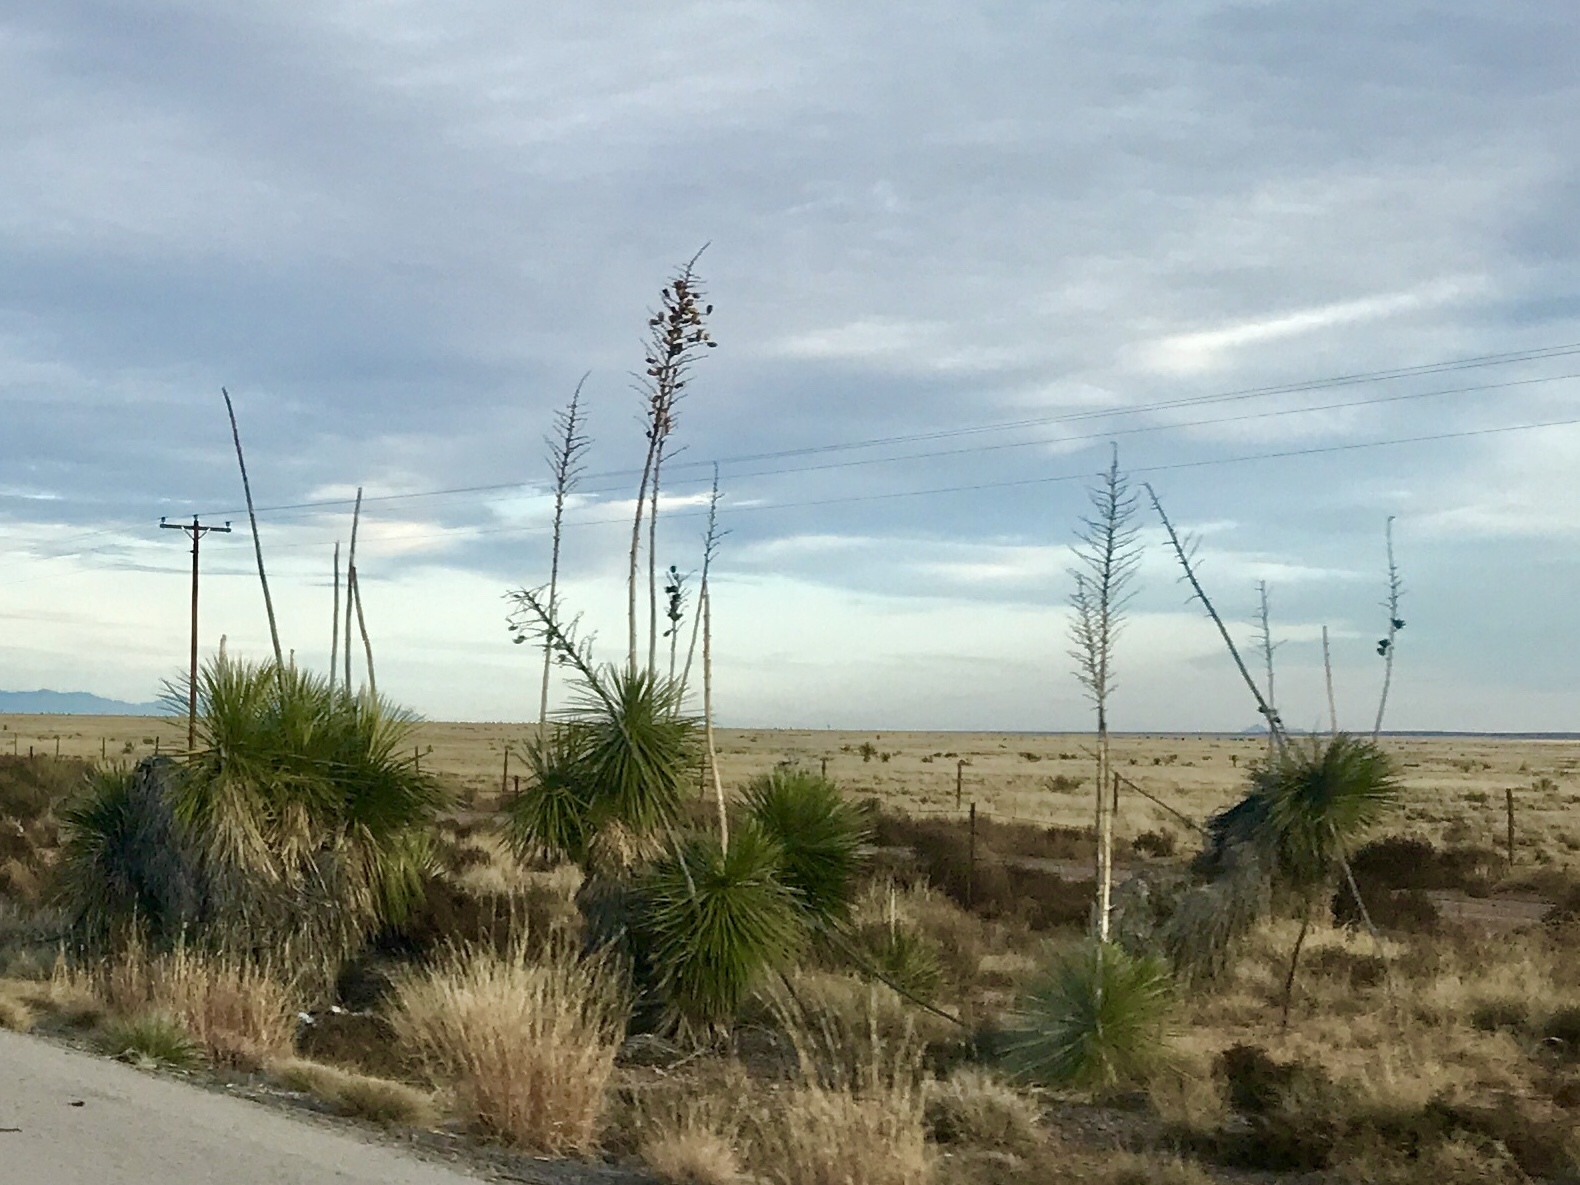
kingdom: Plantae
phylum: Tracheophyta
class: Liliopsida
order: Asparagales
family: Asparagaceae
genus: Yucca
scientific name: Yucca elata
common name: Palmella
